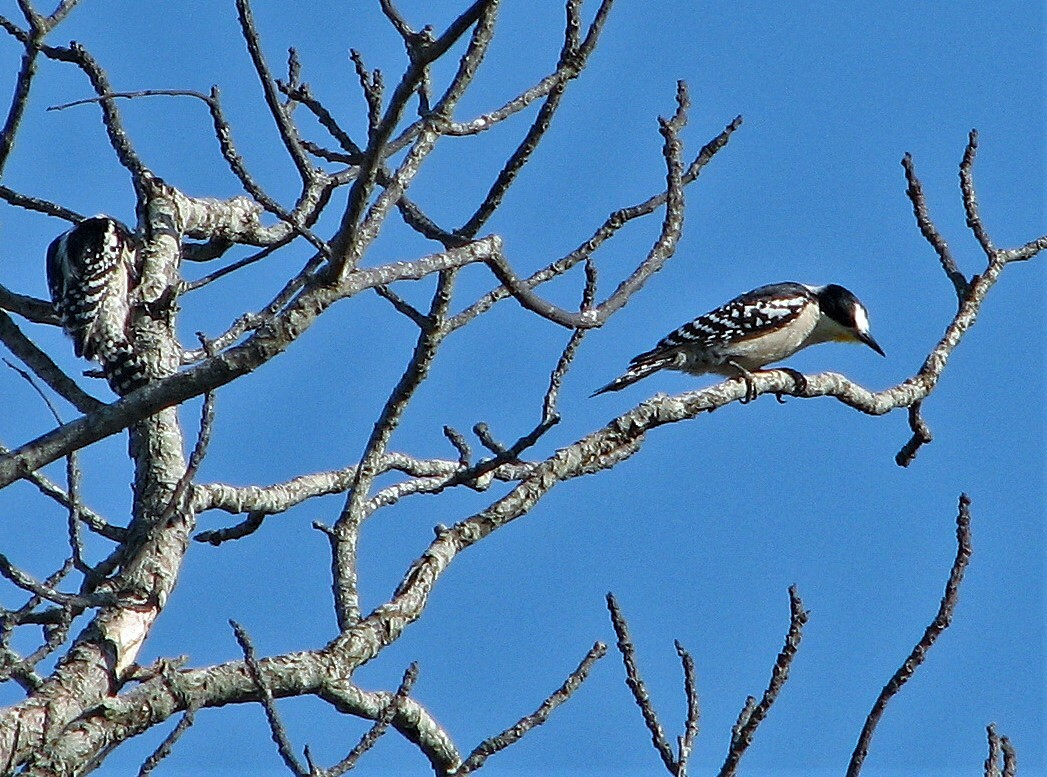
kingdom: Animalia
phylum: Chordata
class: Aves
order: Piciformes
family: Picidae
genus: Melanerpes
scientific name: Melanerpes cactorum
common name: White-fronted woodpecker
